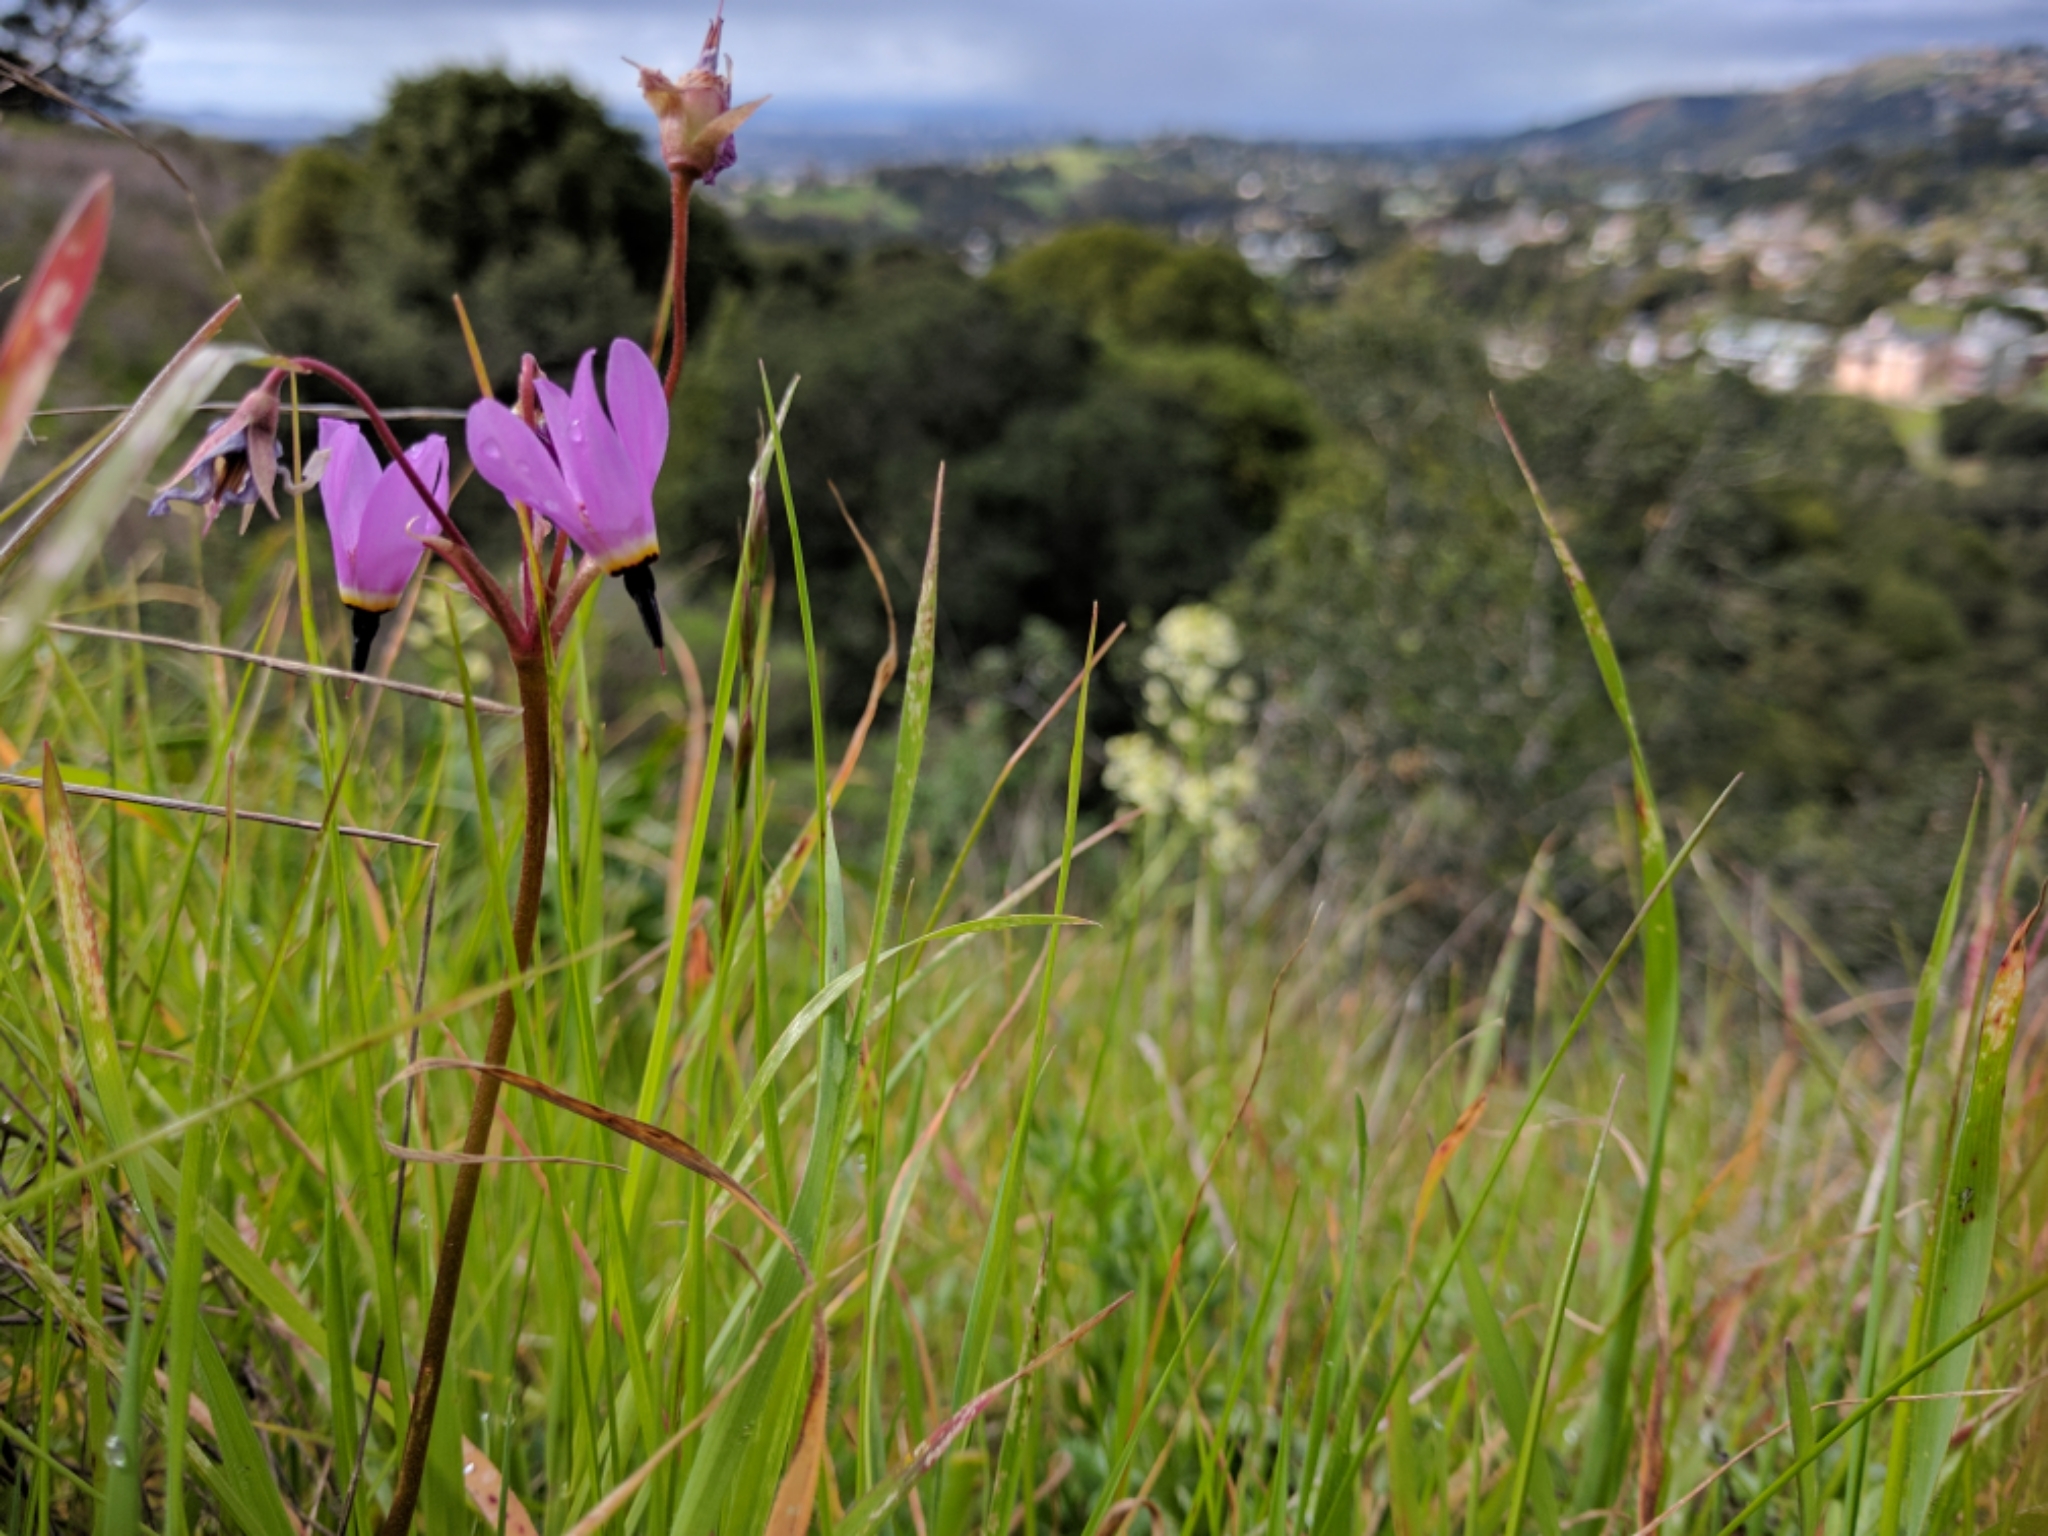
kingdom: Plantae
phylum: Tracheophyta
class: Magnoliopsida
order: Ericales
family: Primulaceae
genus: Dodecatheon
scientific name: Dodecatheon hendersonii
